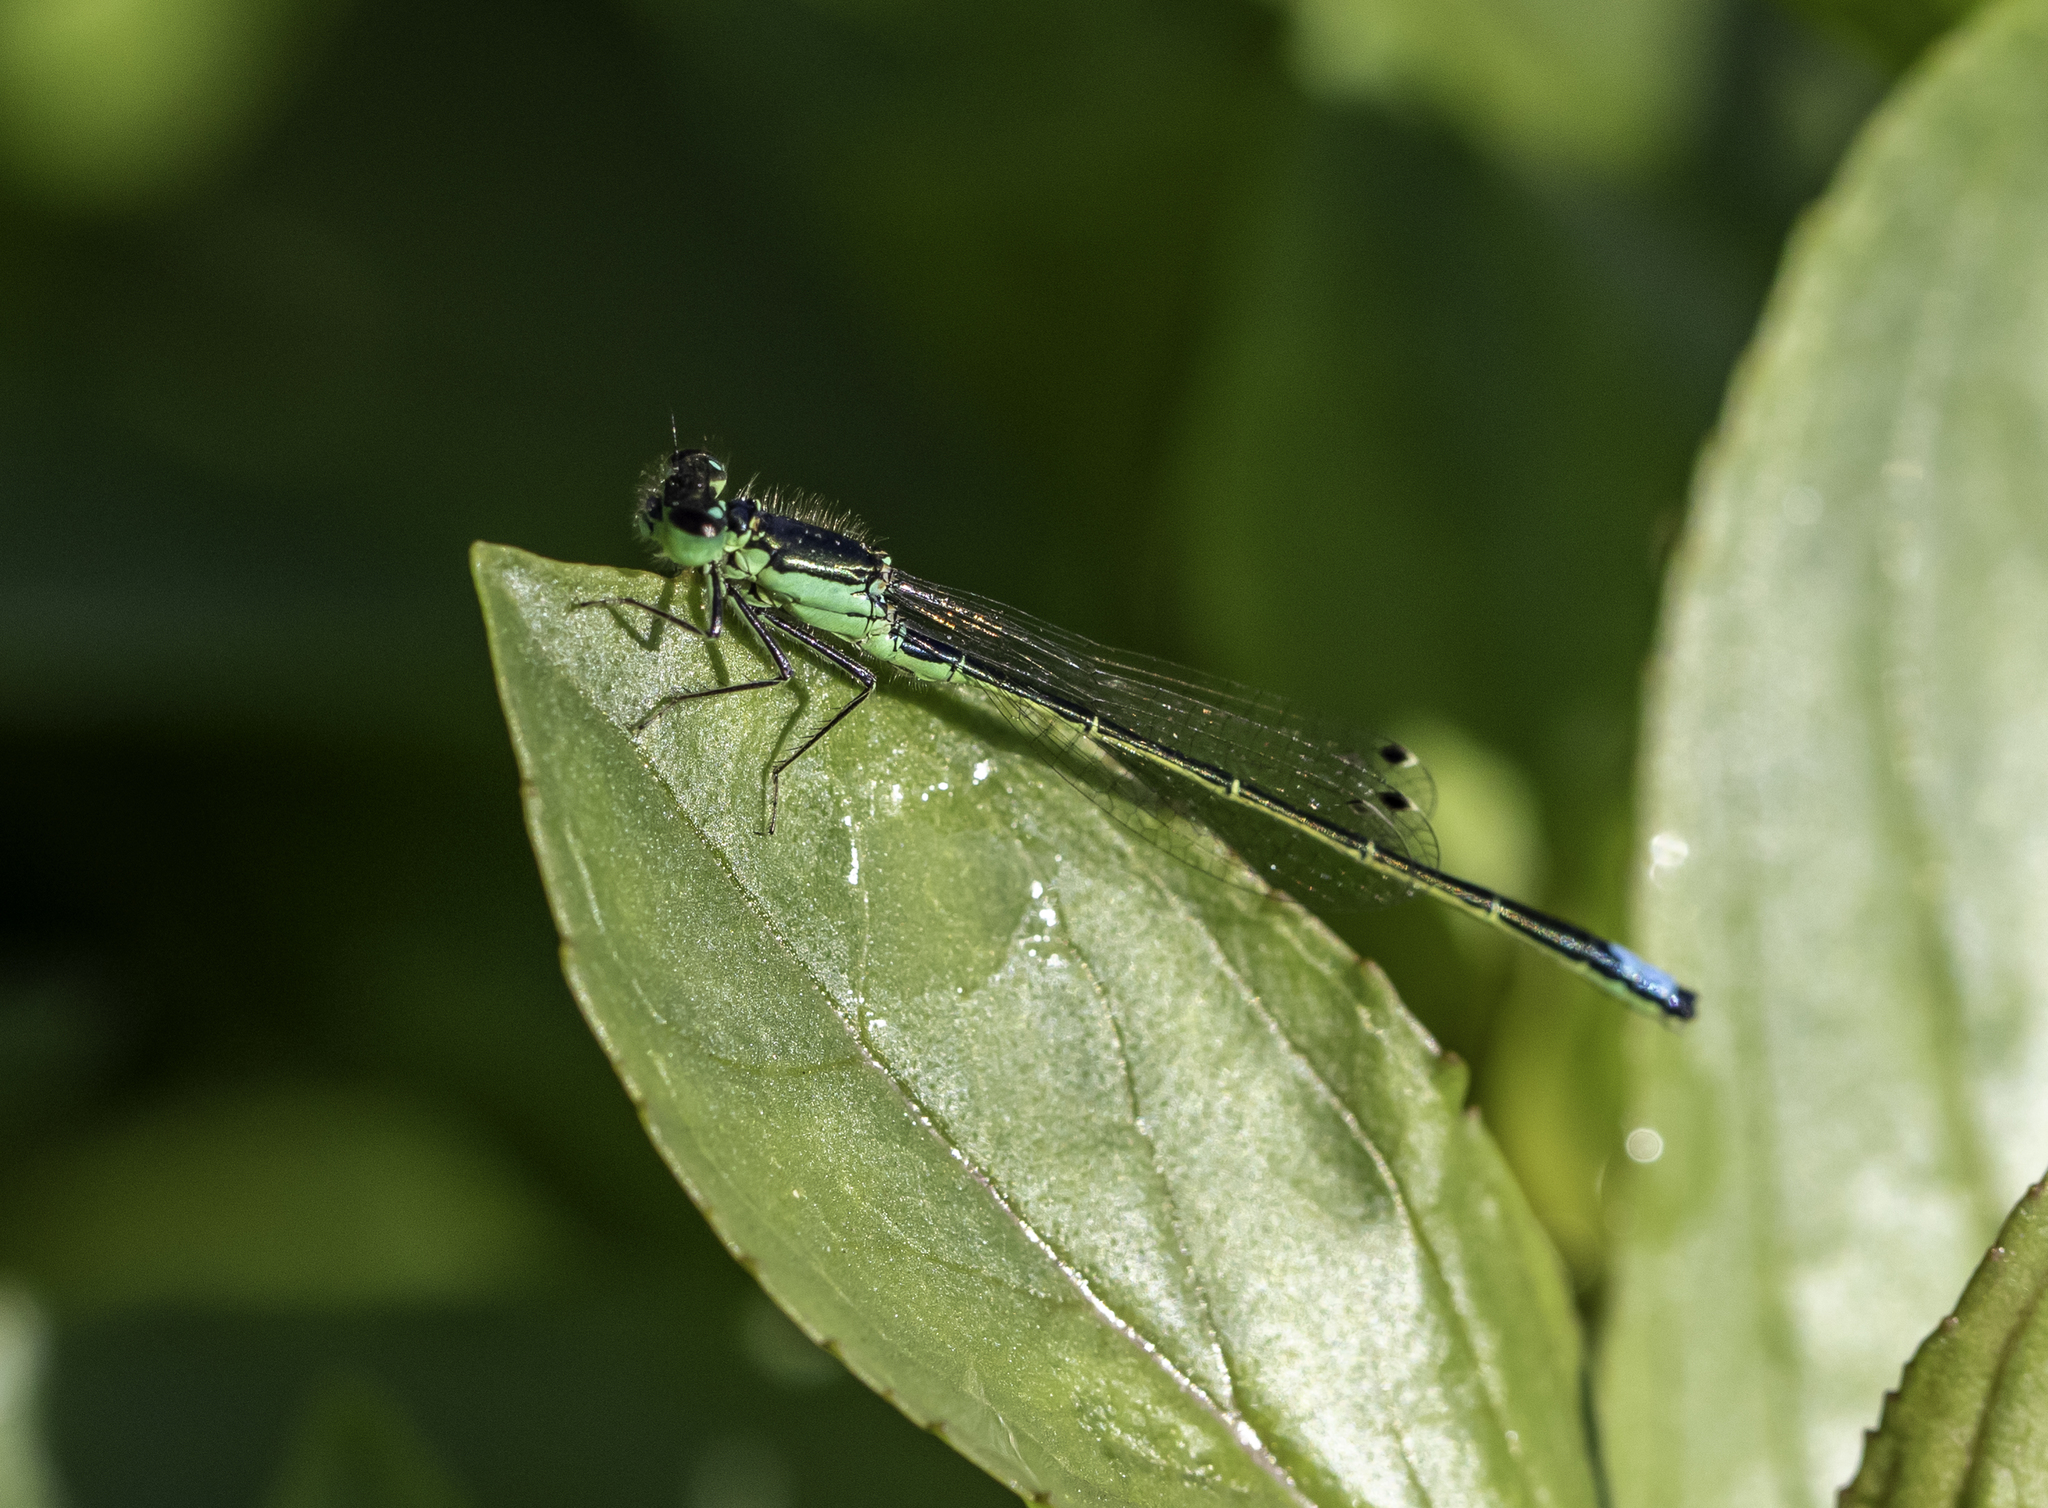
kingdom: Animalia
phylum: Arthropoda
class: Insecta
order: Odonata
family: Coenagrionidae
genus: Ischnura
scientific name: Ischnura denticollis
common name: Black-fronted forktail
